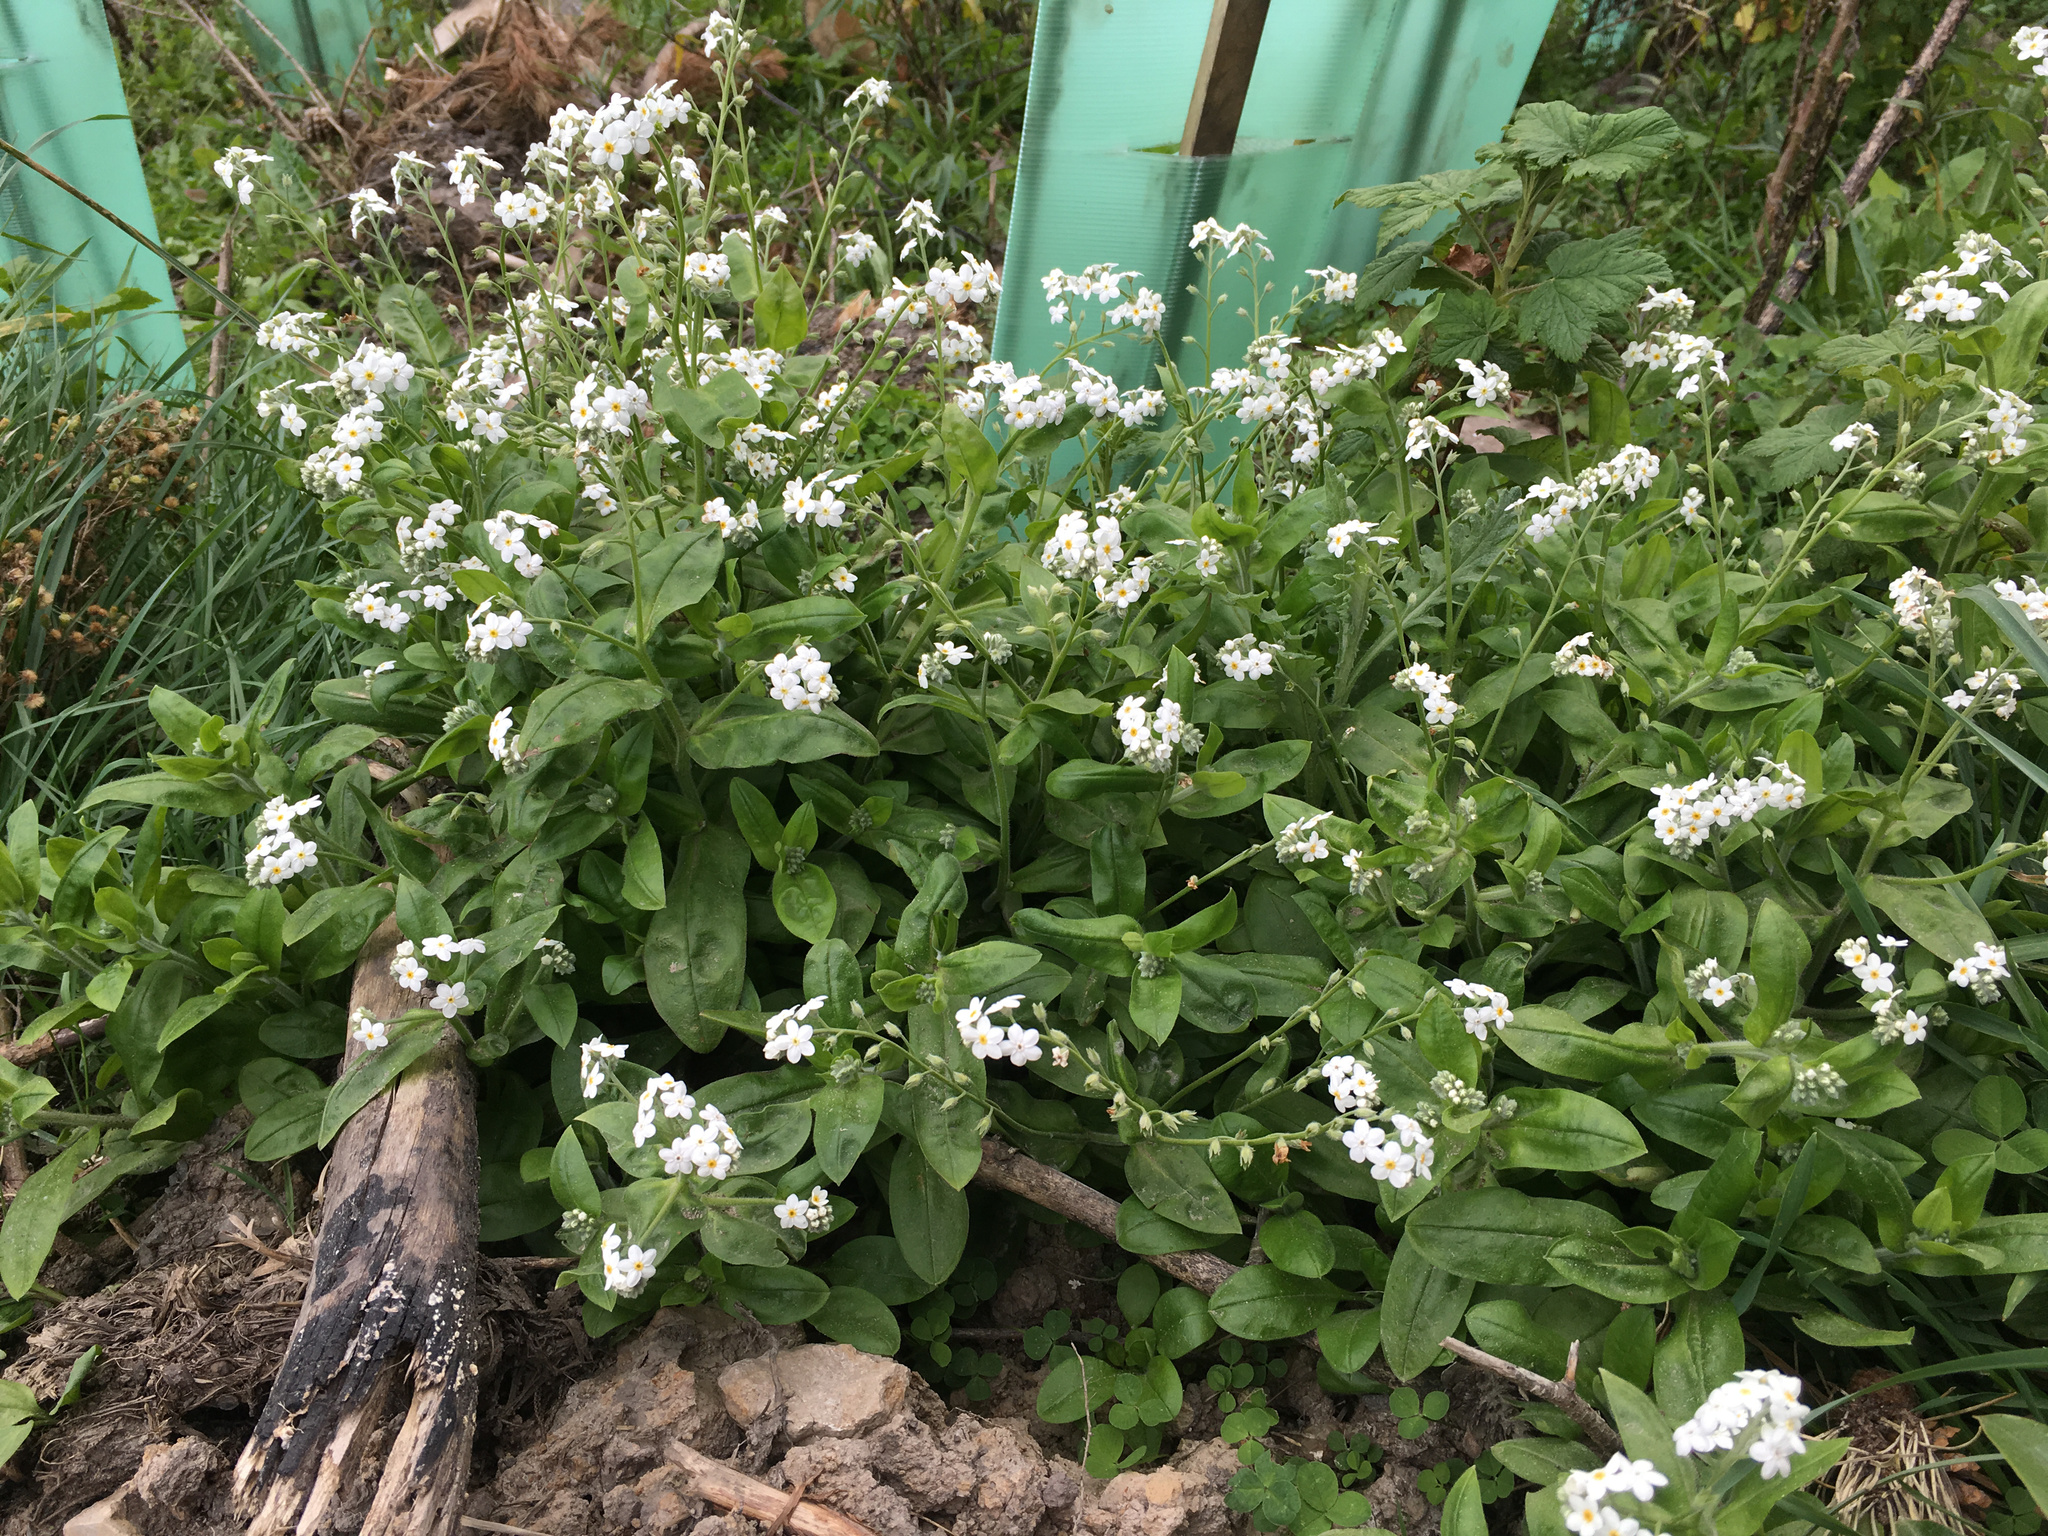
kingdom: Plantae
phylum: Tracheophyta
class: Magnoliopsida
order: Boraginales
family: Boraginaceae
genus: Myosotis
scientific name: Myosotis sylvatica
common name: Wood forget-me-not
